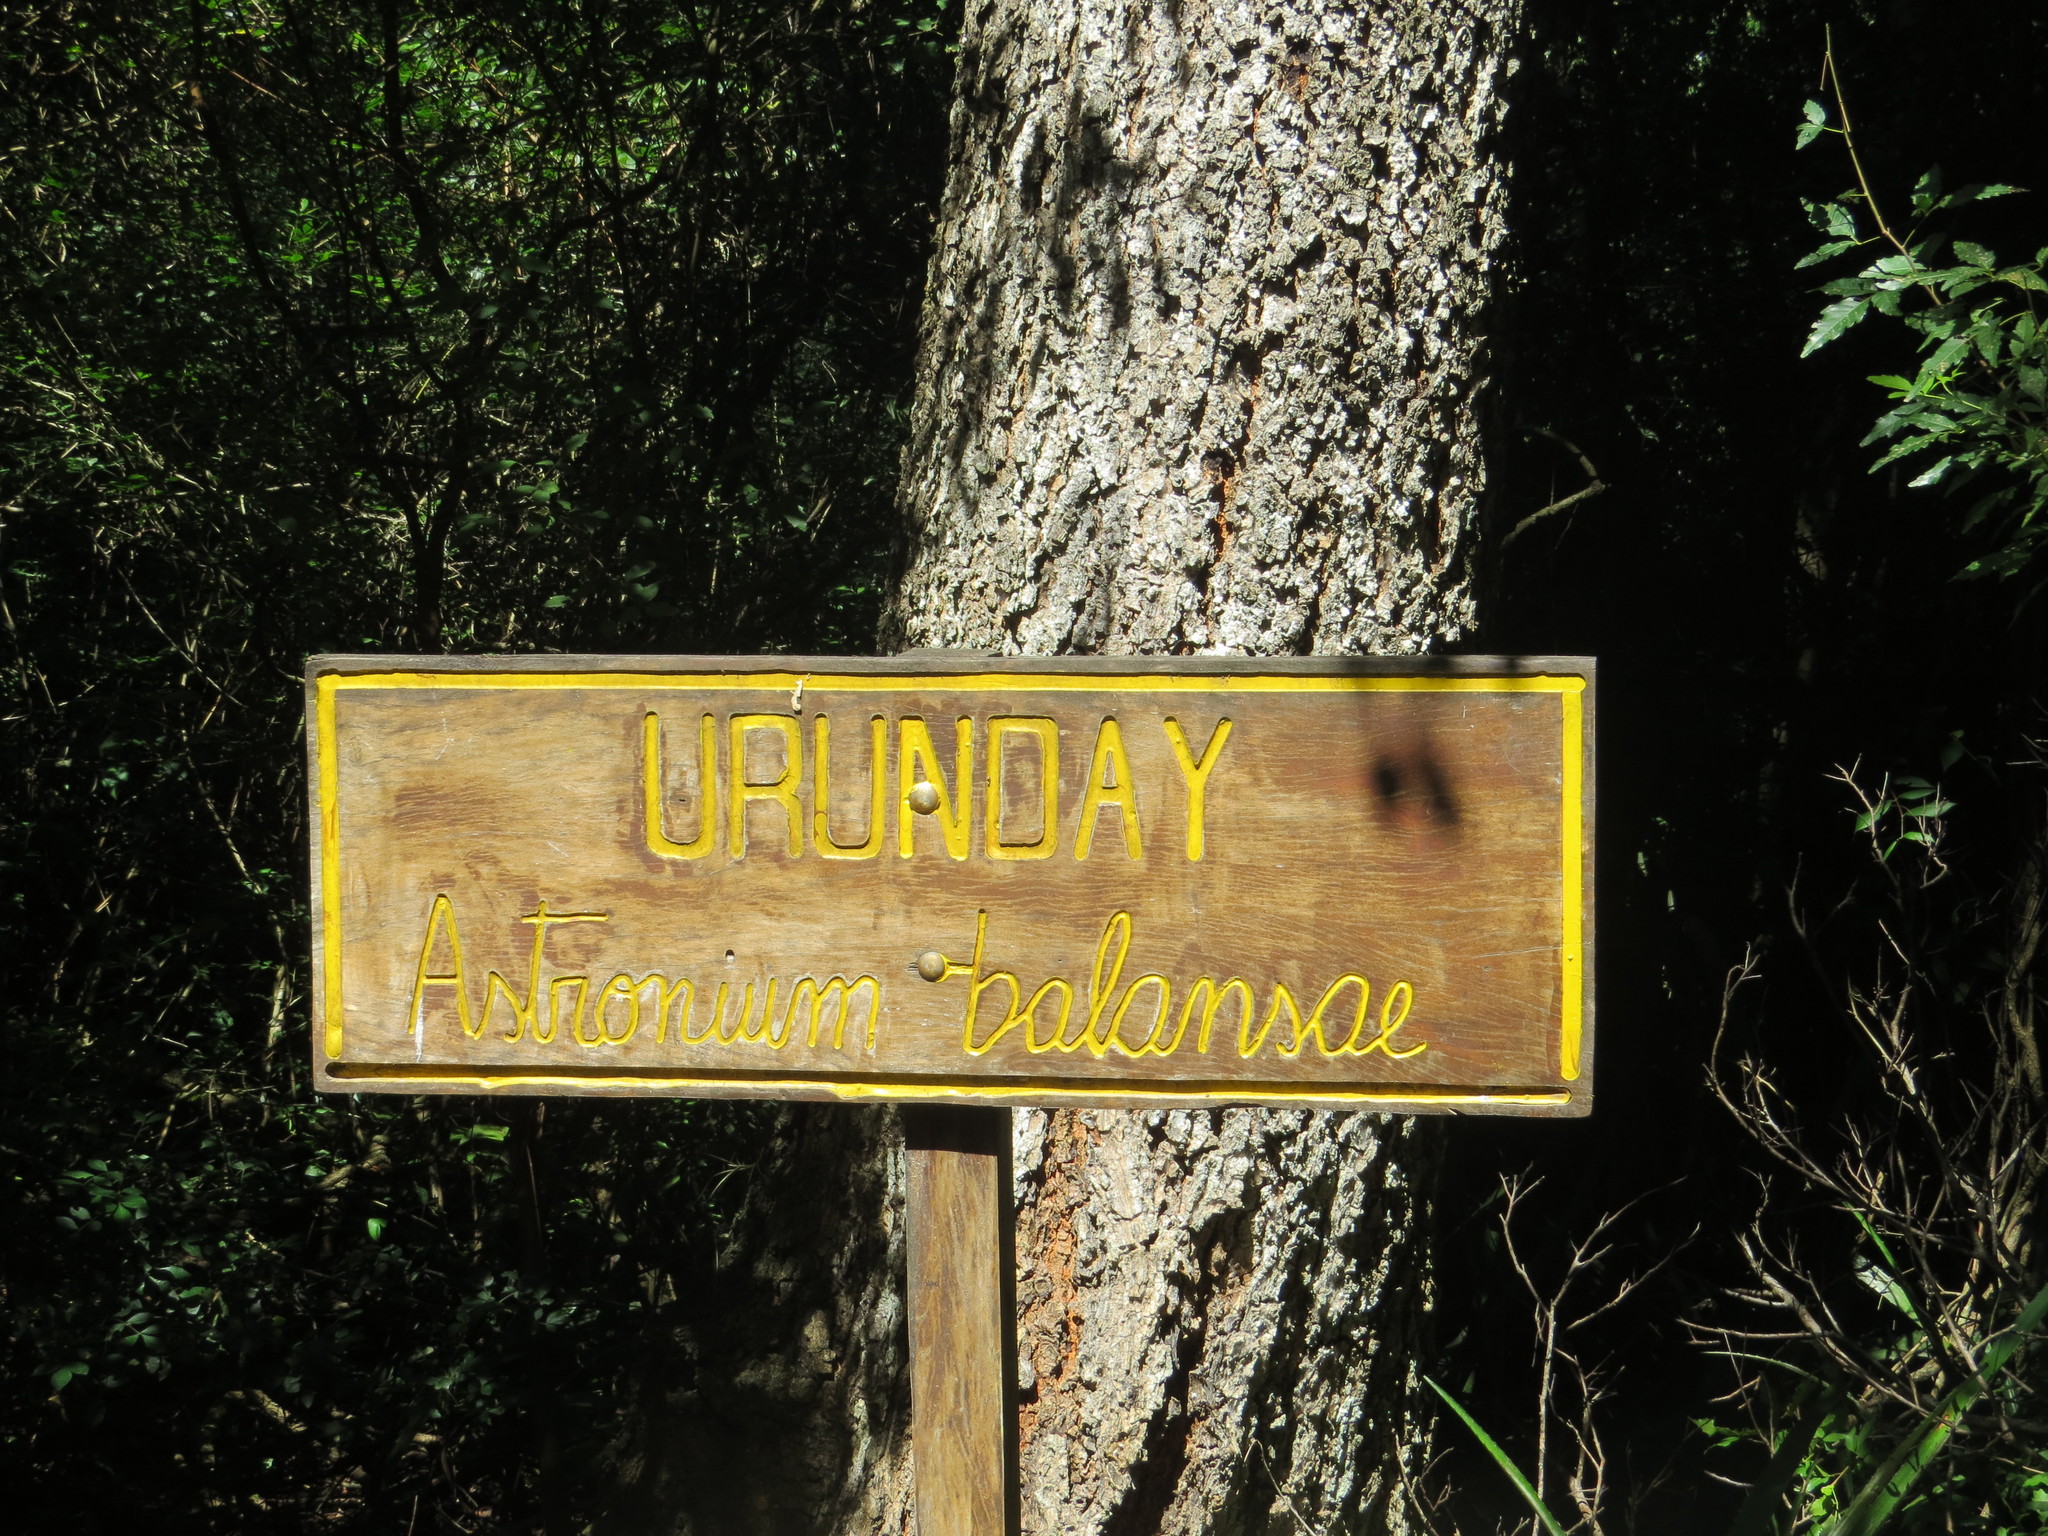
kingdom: Plantae
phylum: Tracheophyta
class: Magnoliopsida
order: Sapindales
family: Anacardiaceae
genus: Myracrodruon
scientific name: Myracrodruon balansae
